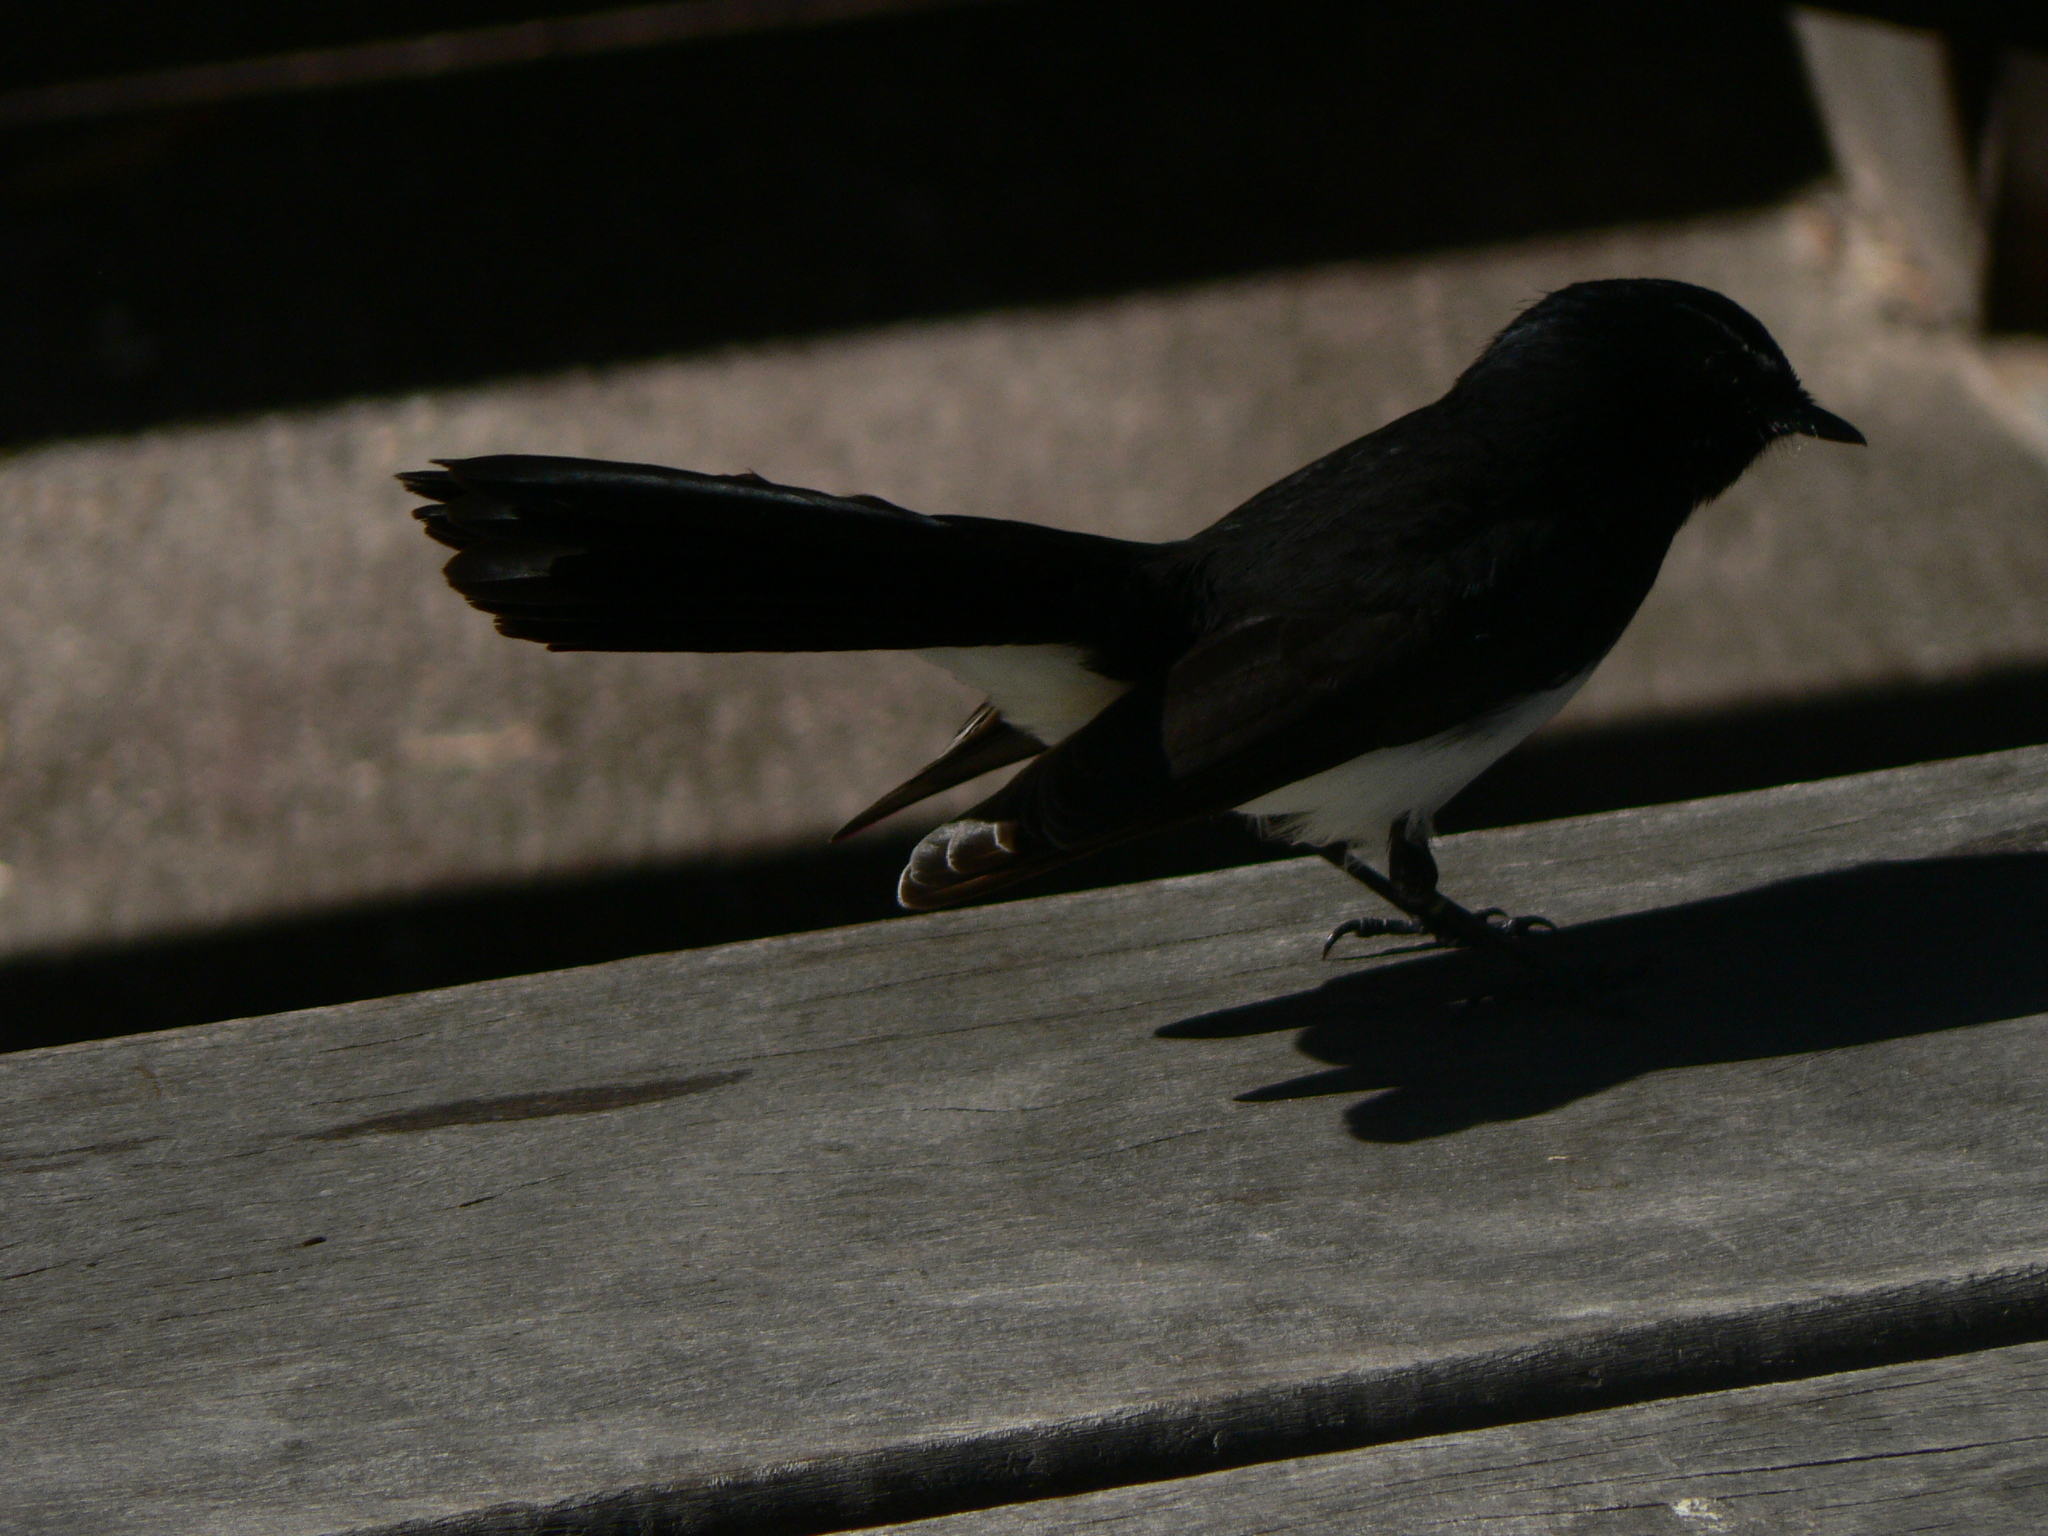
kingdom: Animalia
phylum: Chordata
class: Aves
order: Passeriformes
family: Rhipiduridae
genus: Rhipidura
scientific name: Rhipidura leucophrys
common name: Willie wagtail
